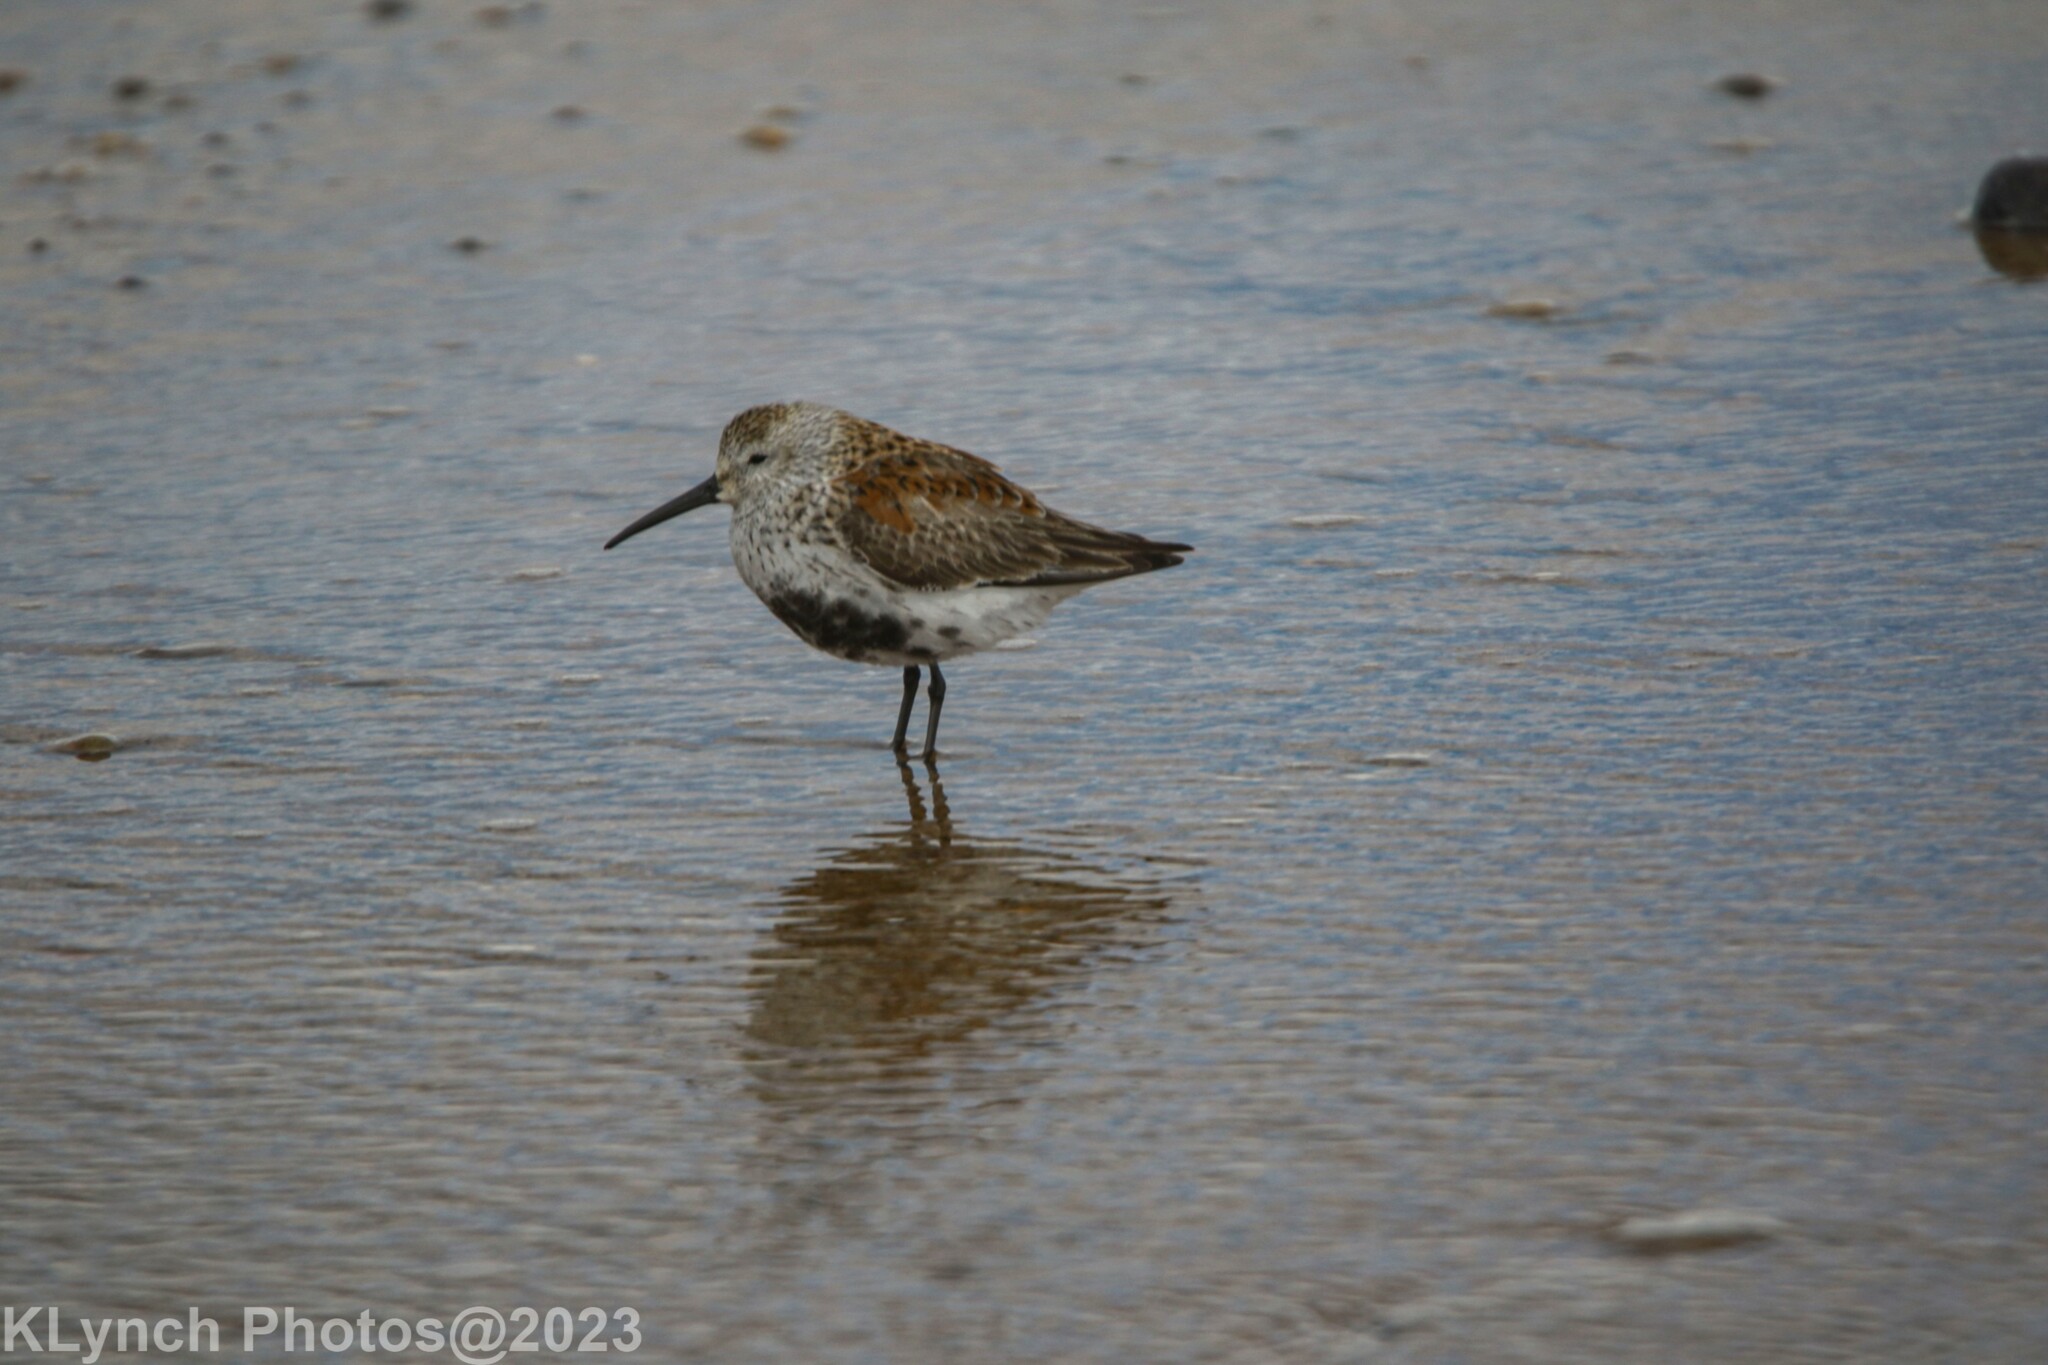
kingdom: Animalia
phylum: Chordata
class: Aves
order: Charadriiformes
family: Scolopacidae
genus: Calidris
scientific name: Calidris alpina
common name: Dunlin
